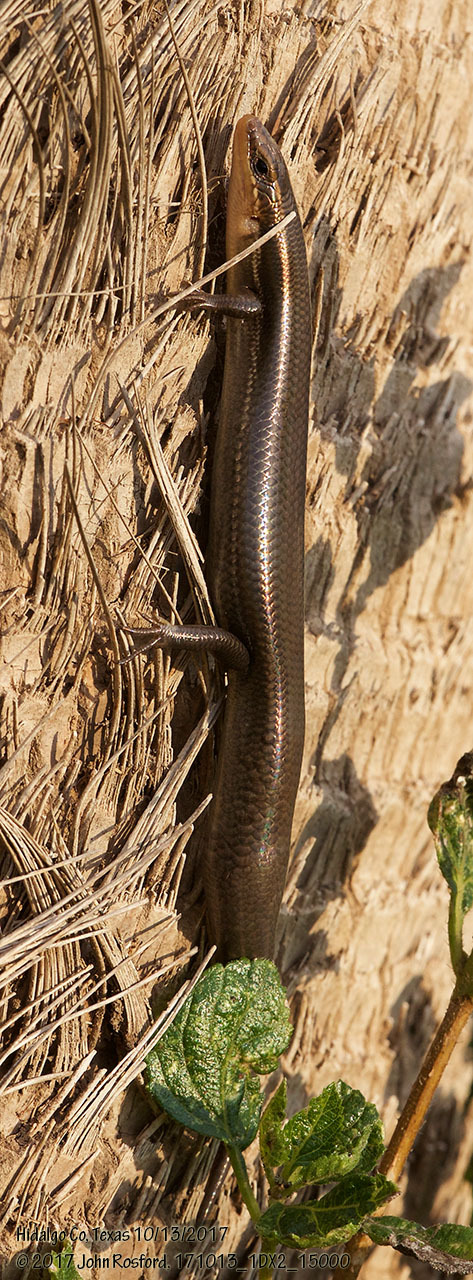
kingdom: Animalia
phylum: Chordata
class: Squamata
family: Scincidae
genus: Plestiodon
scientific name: Plestiodon tetragrammus
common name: Four-lined skink
